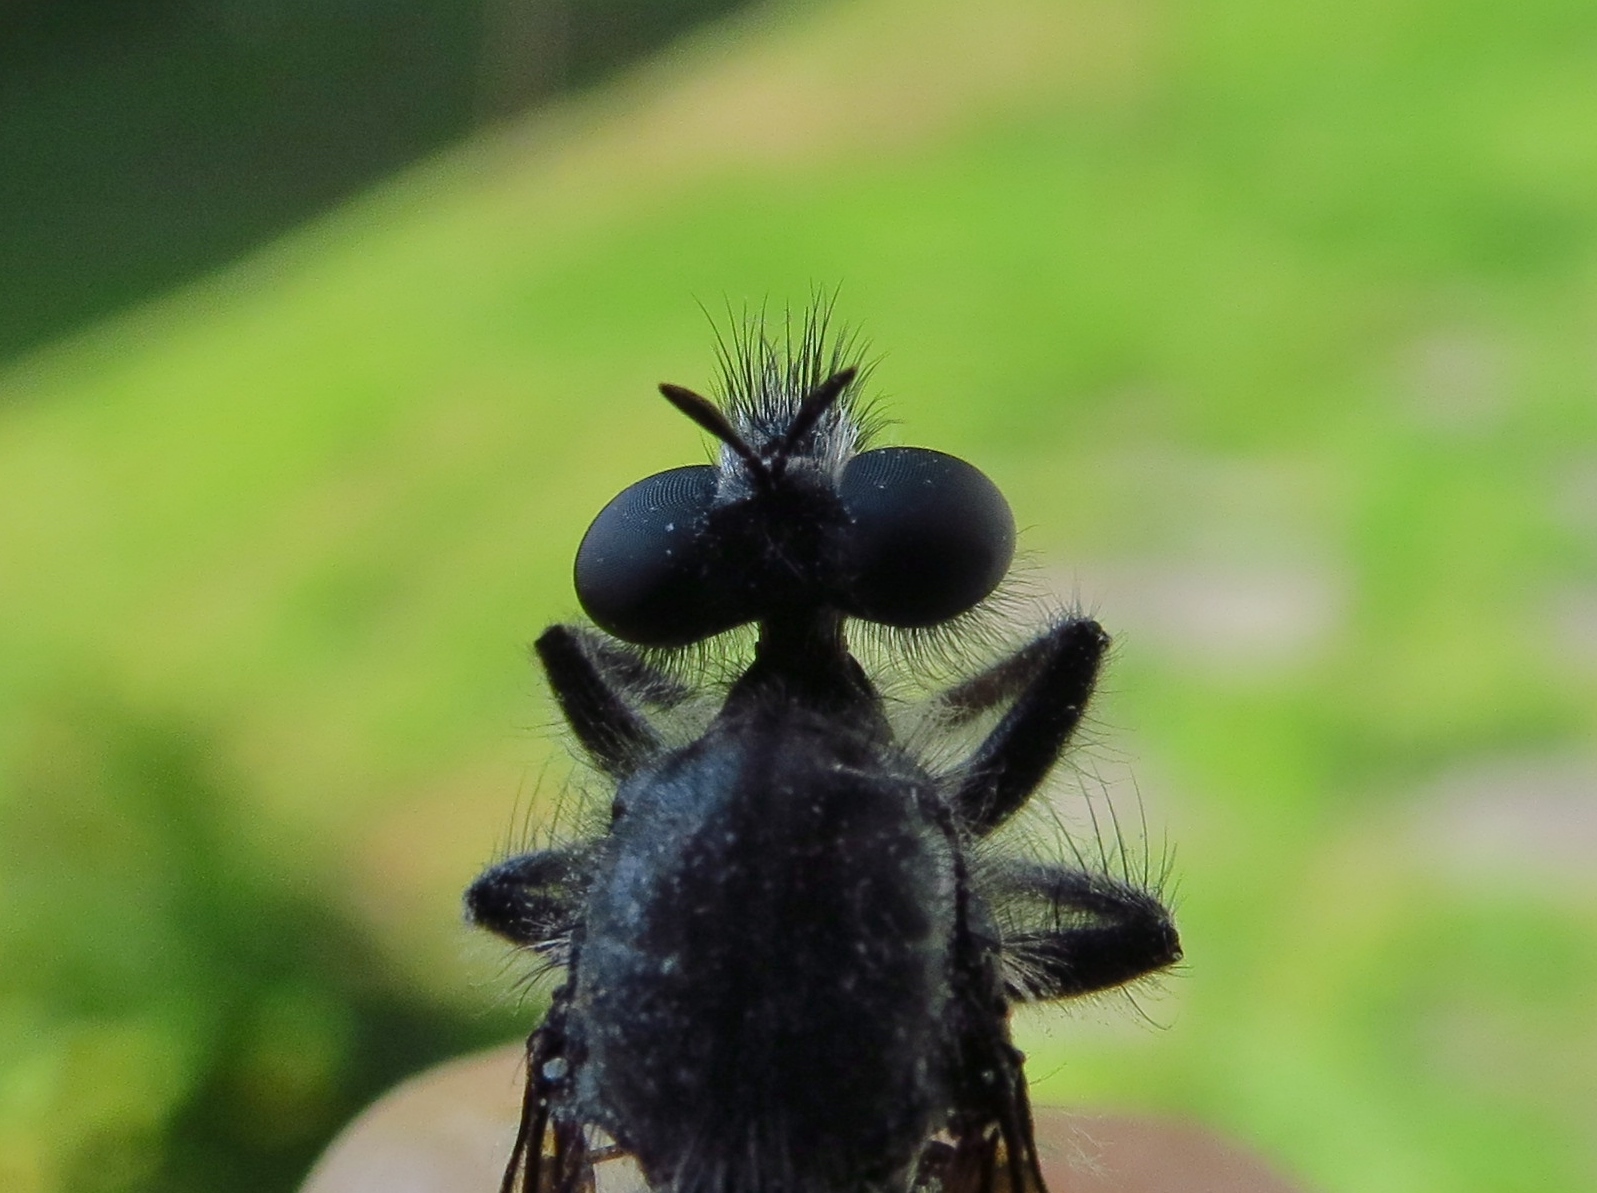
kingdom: Animalia
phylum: Arthropoda
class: Insecta
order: Diptera
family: Asilidae
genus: Laphria
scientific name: Laphria gilva
